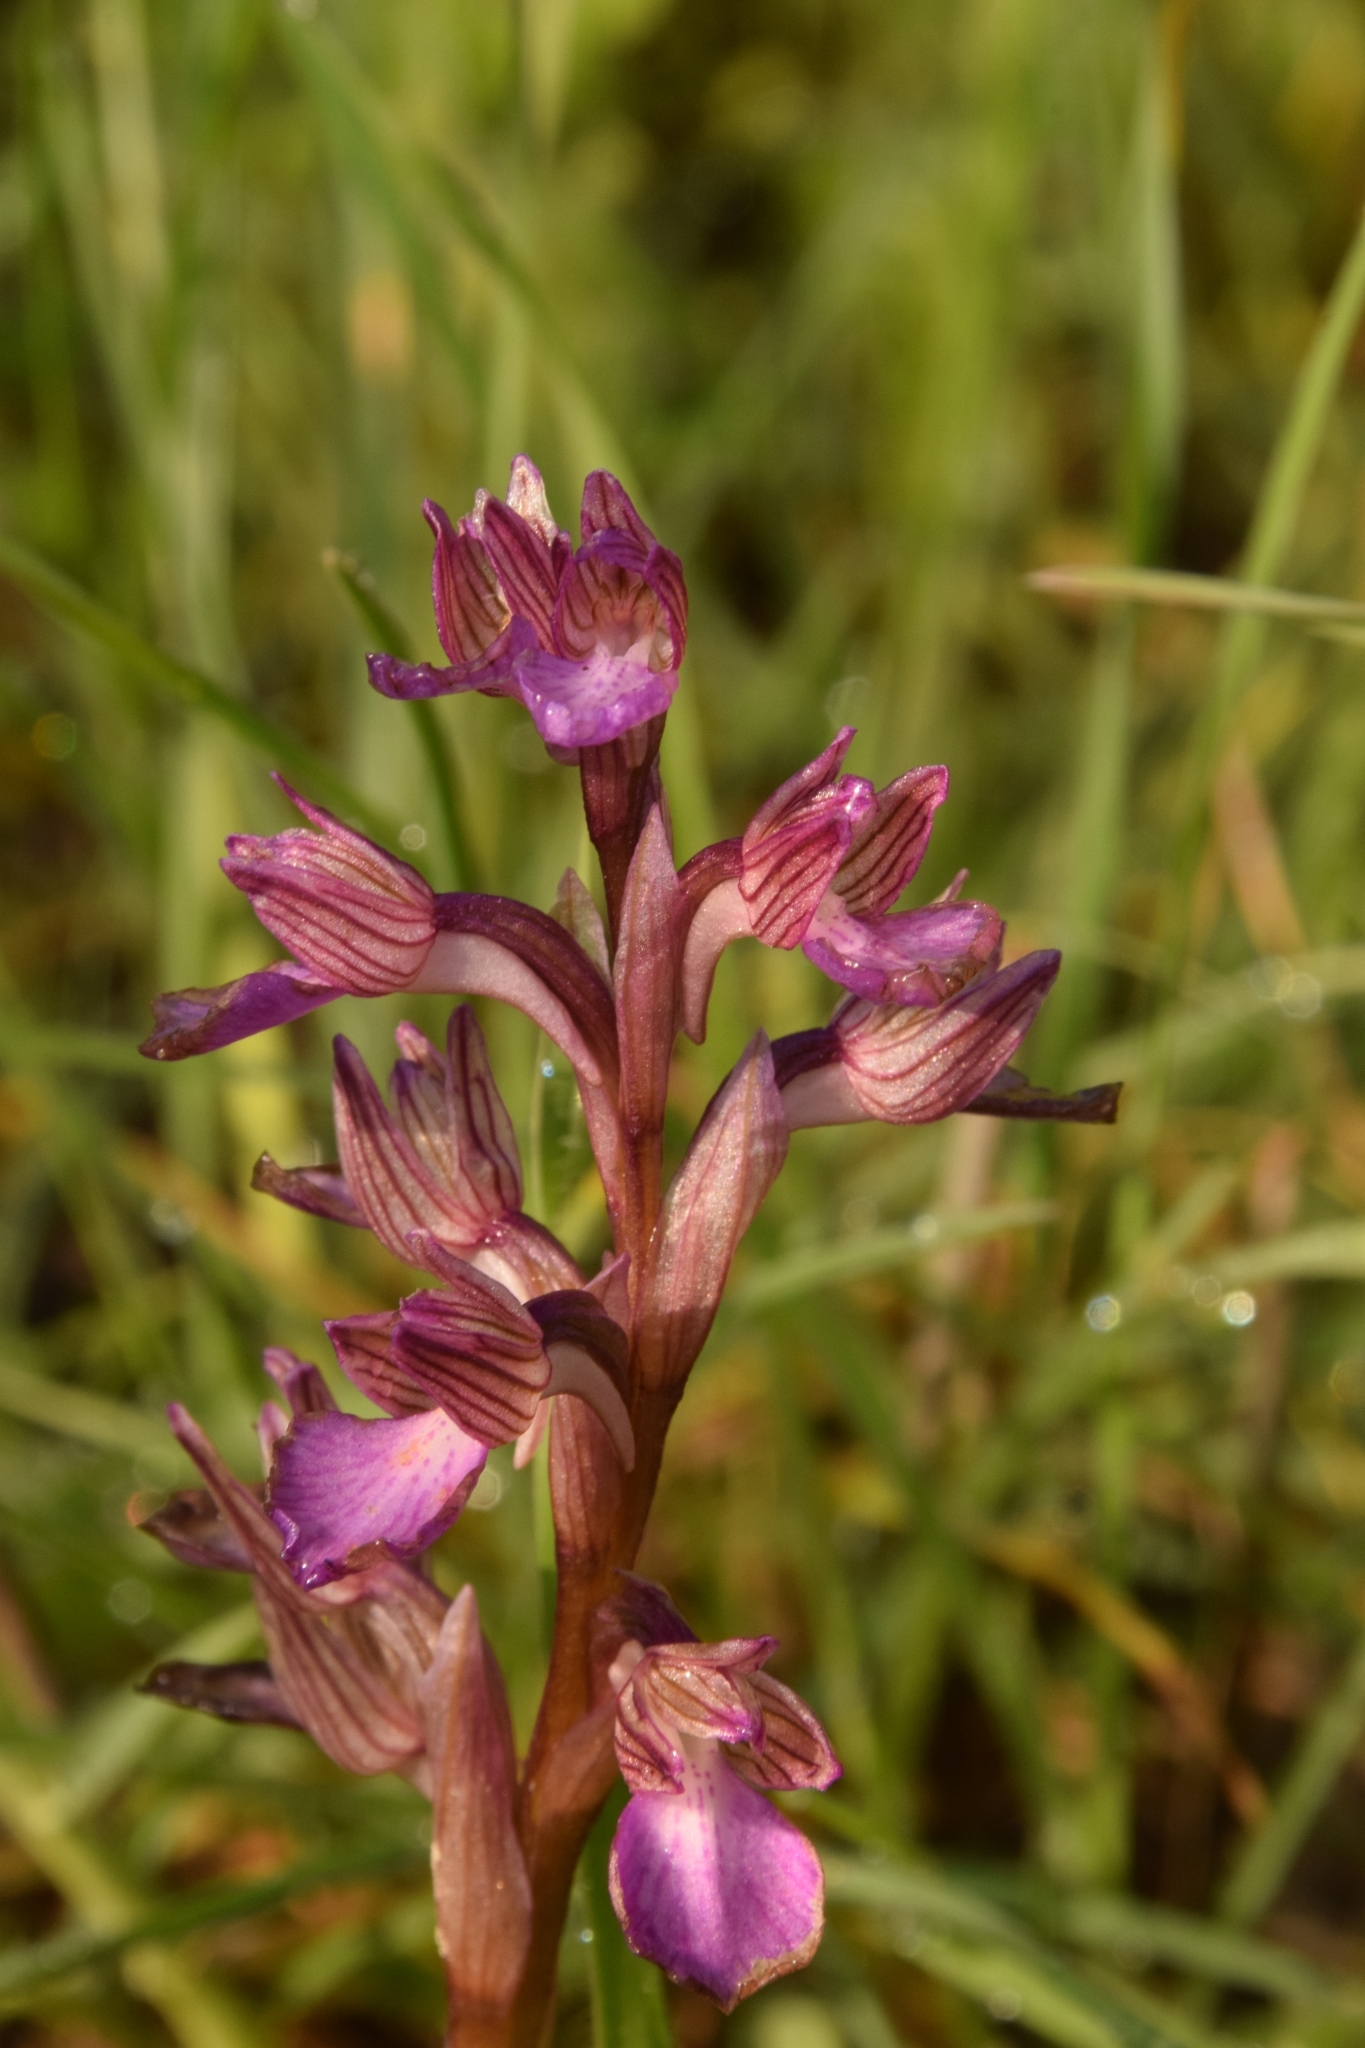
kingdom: Plantae
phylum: Tracheophyta
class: Liliopsida
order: Asparagales
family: Orchidaceae
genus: Anacamptis
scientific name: Anacamptis papilionacea
